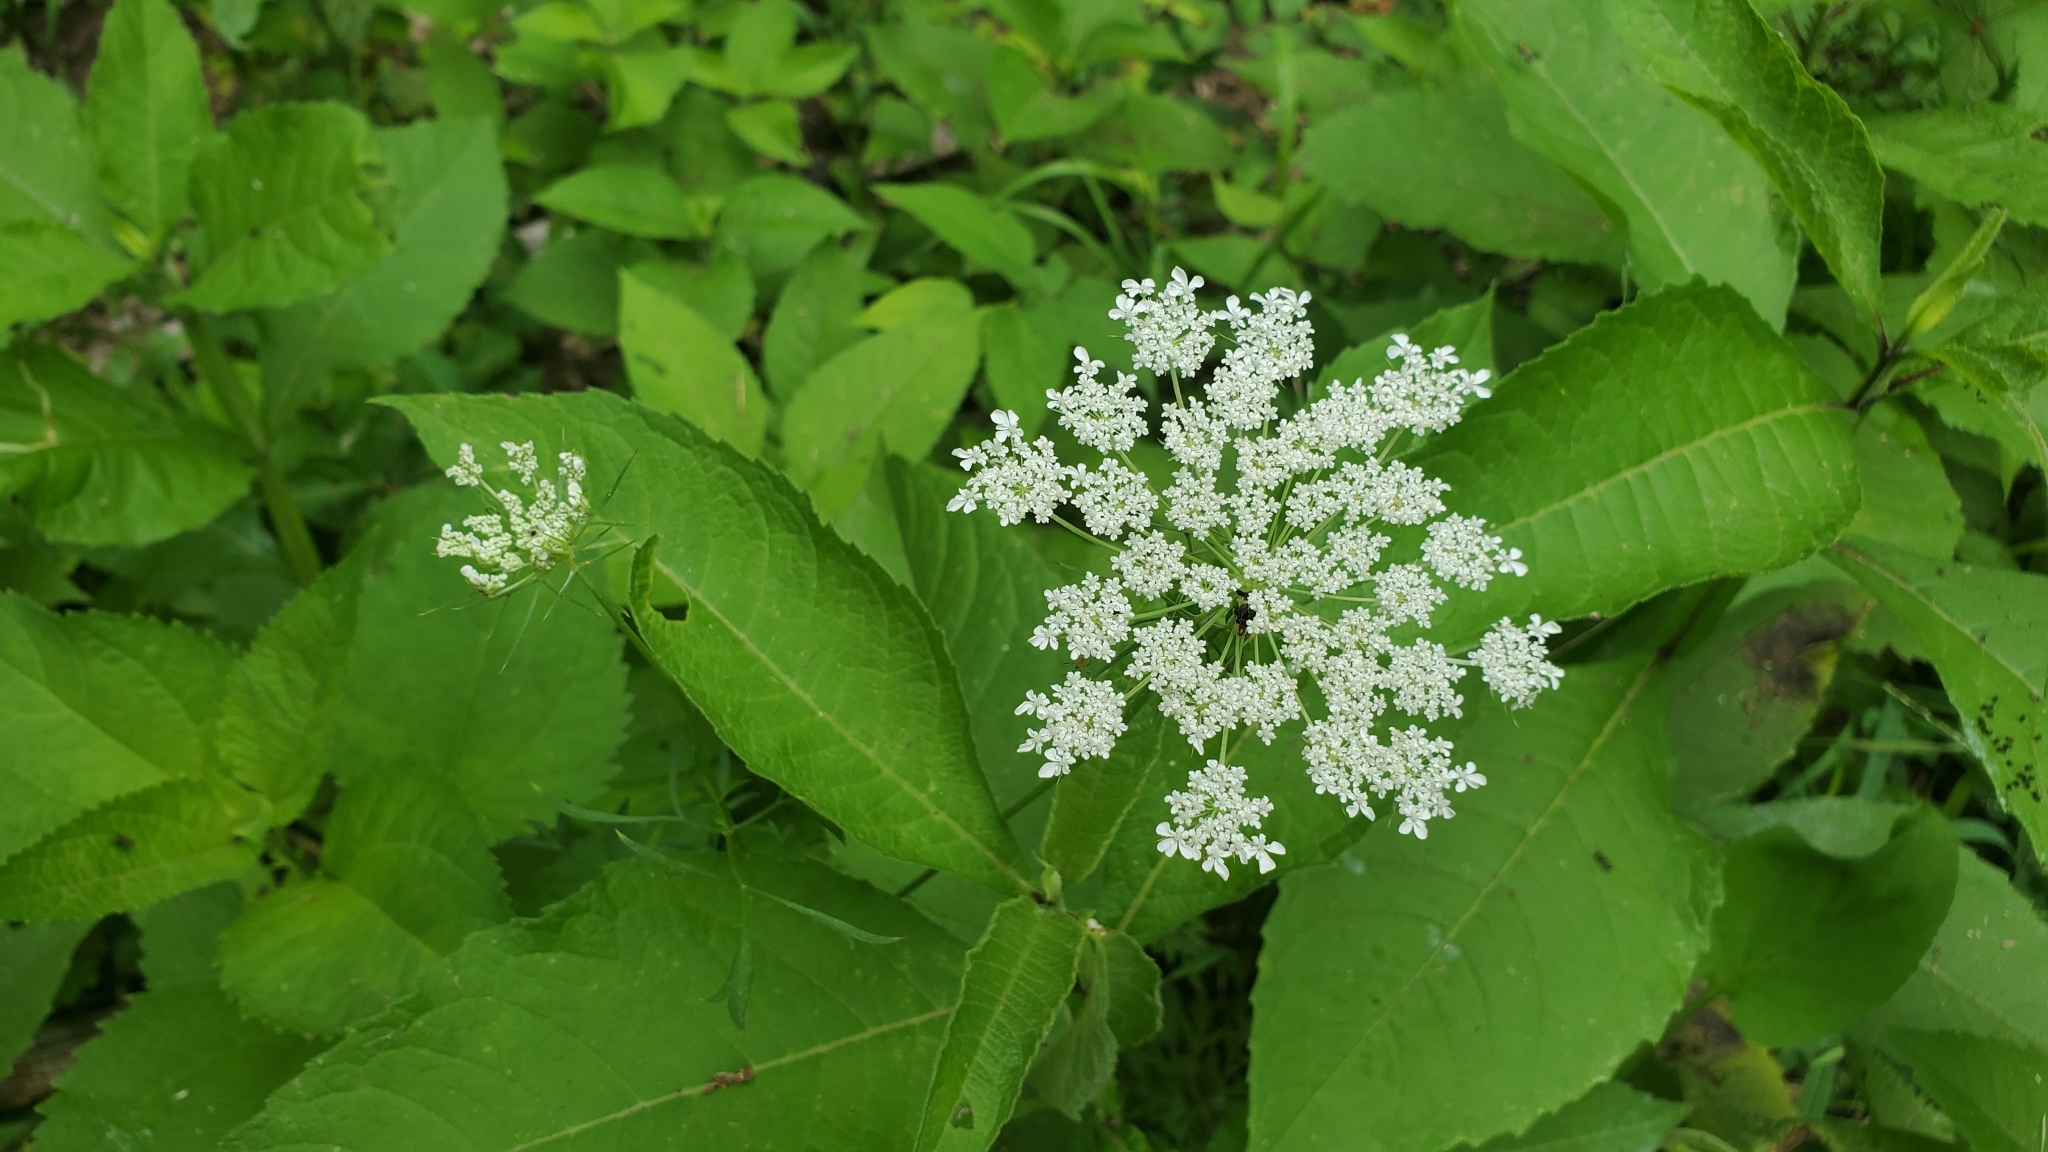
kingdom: Plantae
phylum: Tracheophyta
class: Magnoliopsida
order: Apiales
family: Apiaceae
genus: Daucus
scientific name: Daucus carota
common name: Wild carrot
